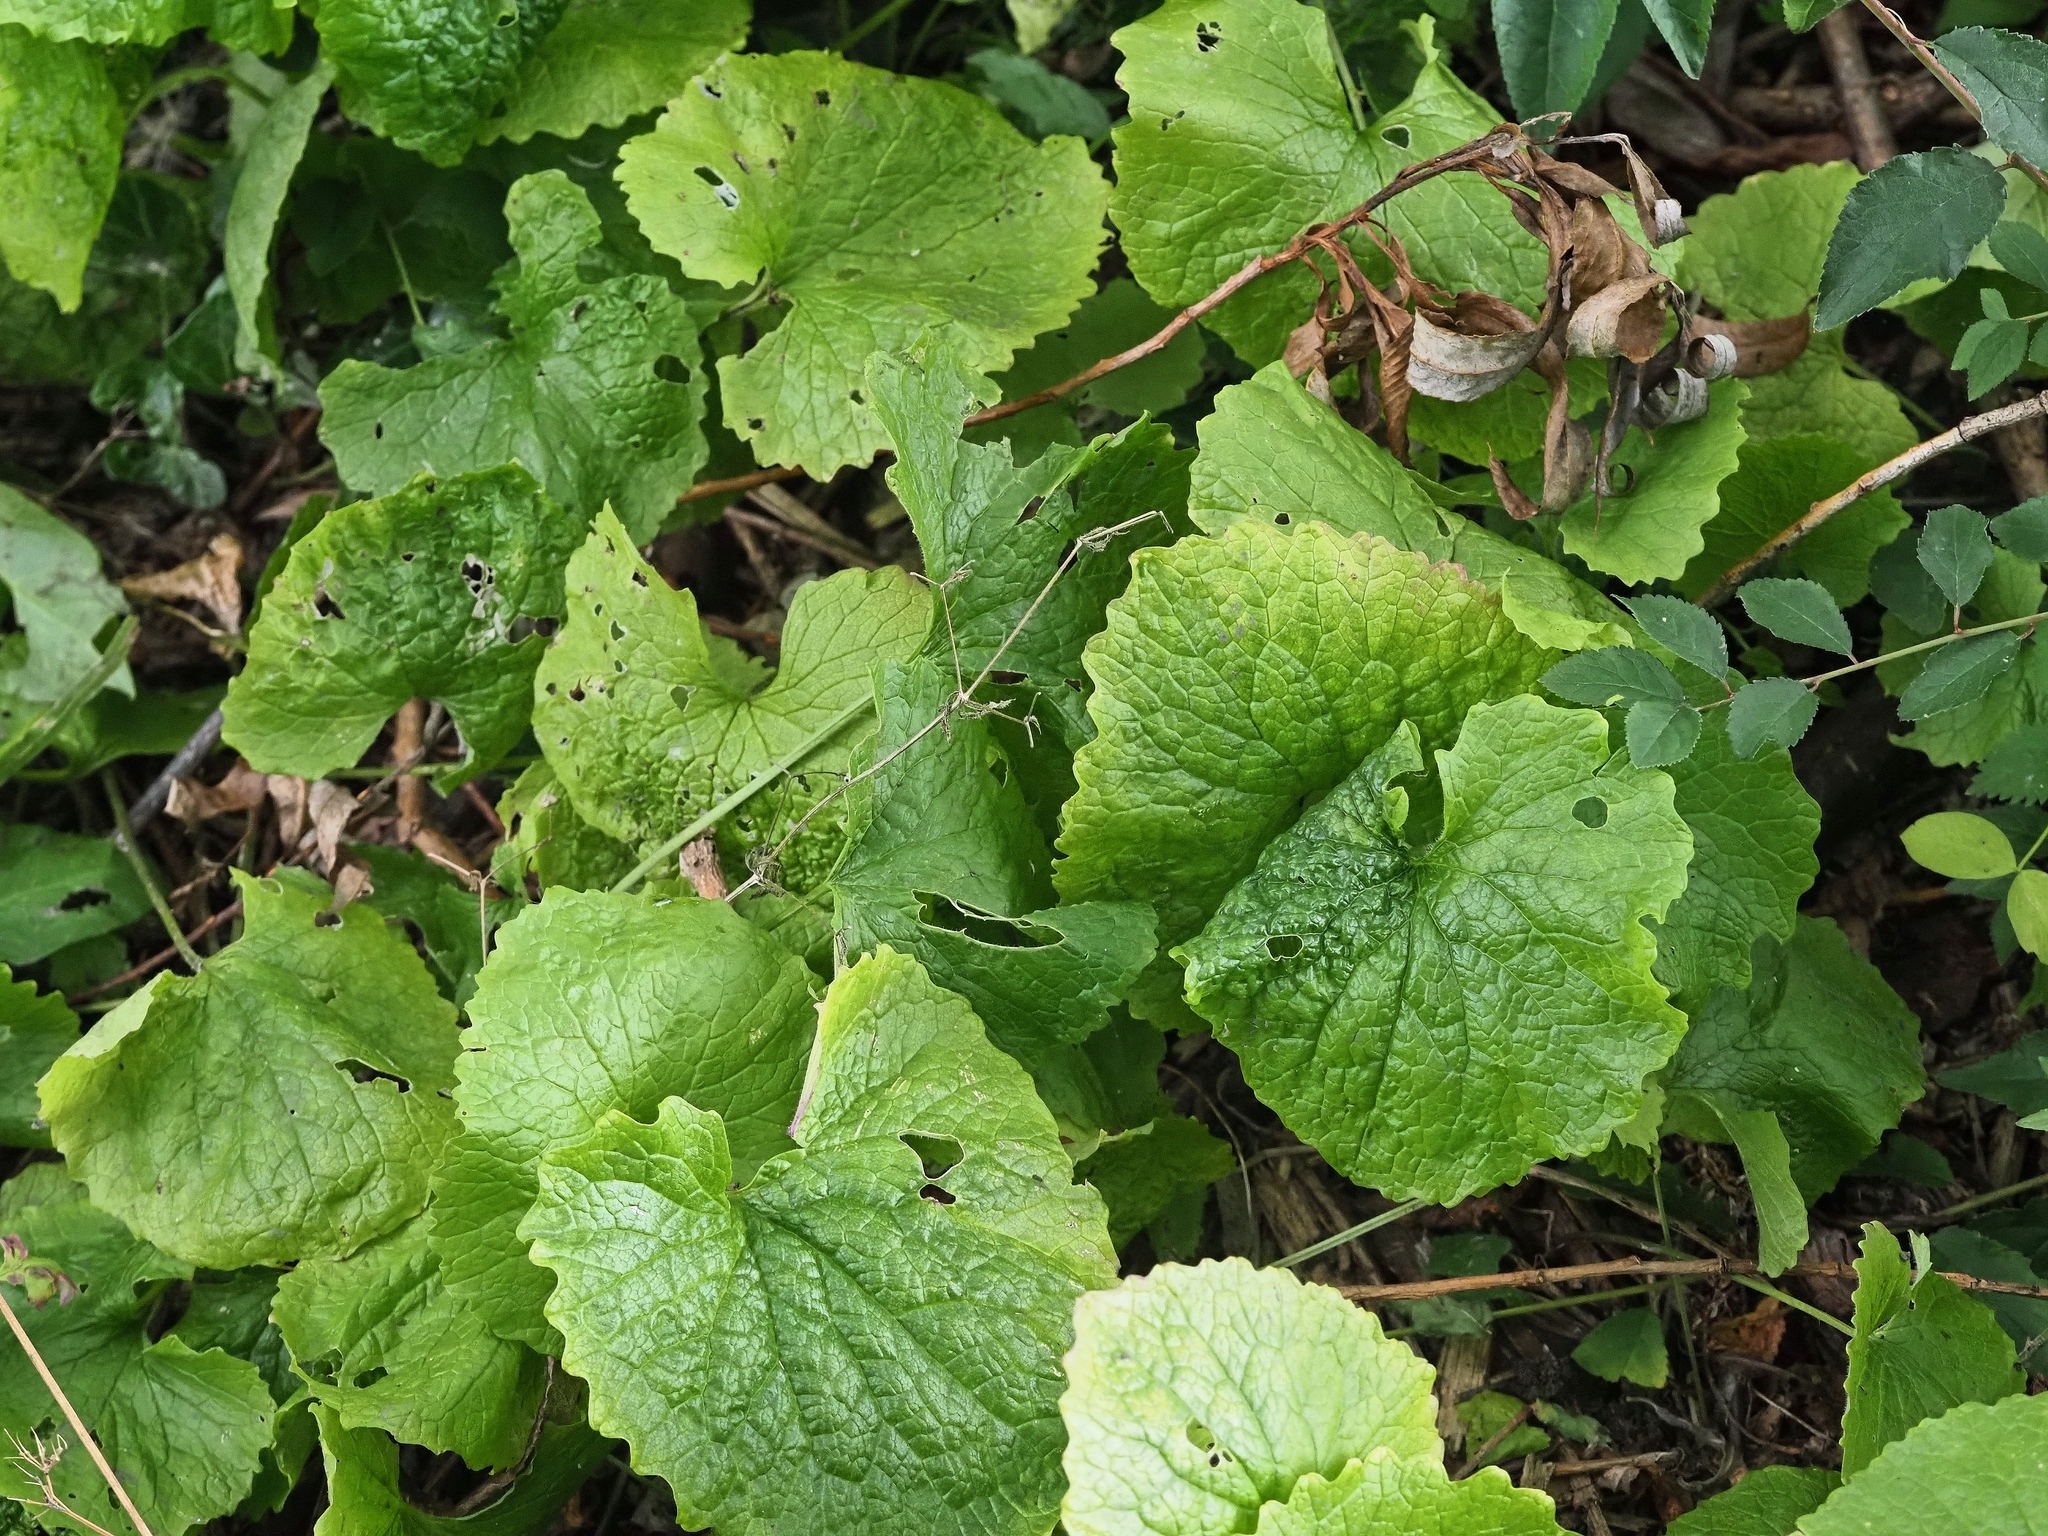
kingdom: Plantae
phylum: Tracheophyta
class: Magnoliopsida
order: Brassicales
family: Brassicaceae
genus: Alliaria
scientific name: Alliaria petiolata
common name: Garlic mustard
